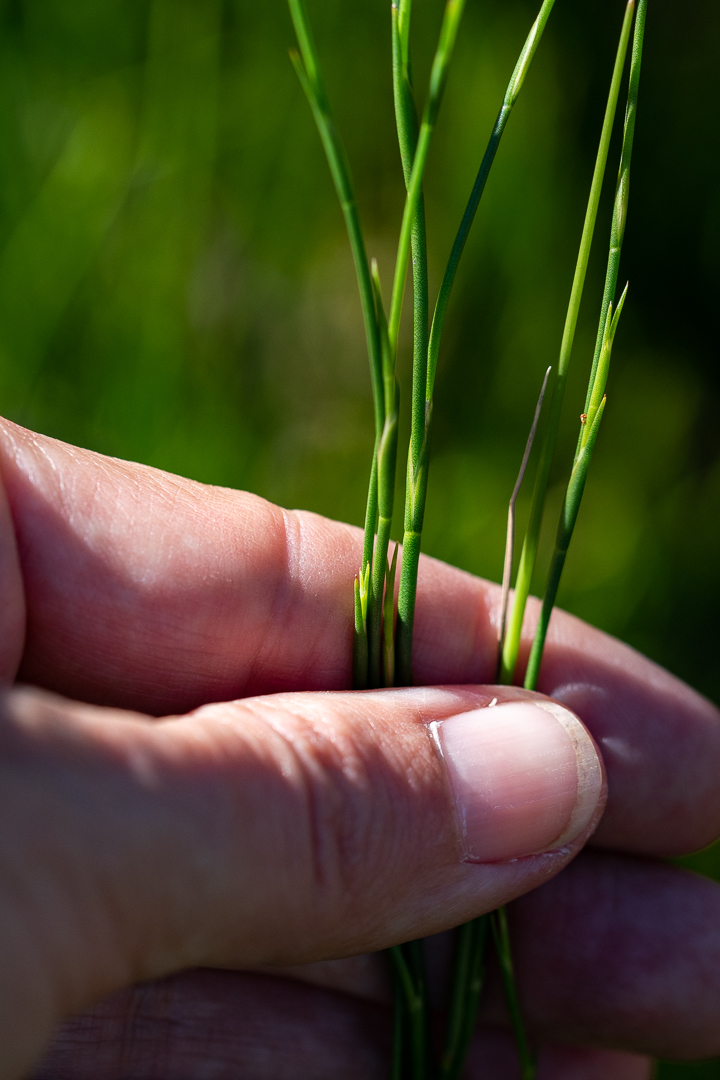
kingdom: Plantae
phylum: Tracheophyta
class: Polypodiopsida
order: Polypodiales
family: Dennstaedtiaceae
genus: Pteridium
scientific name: Pteridium aquilinum
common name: Bracken
